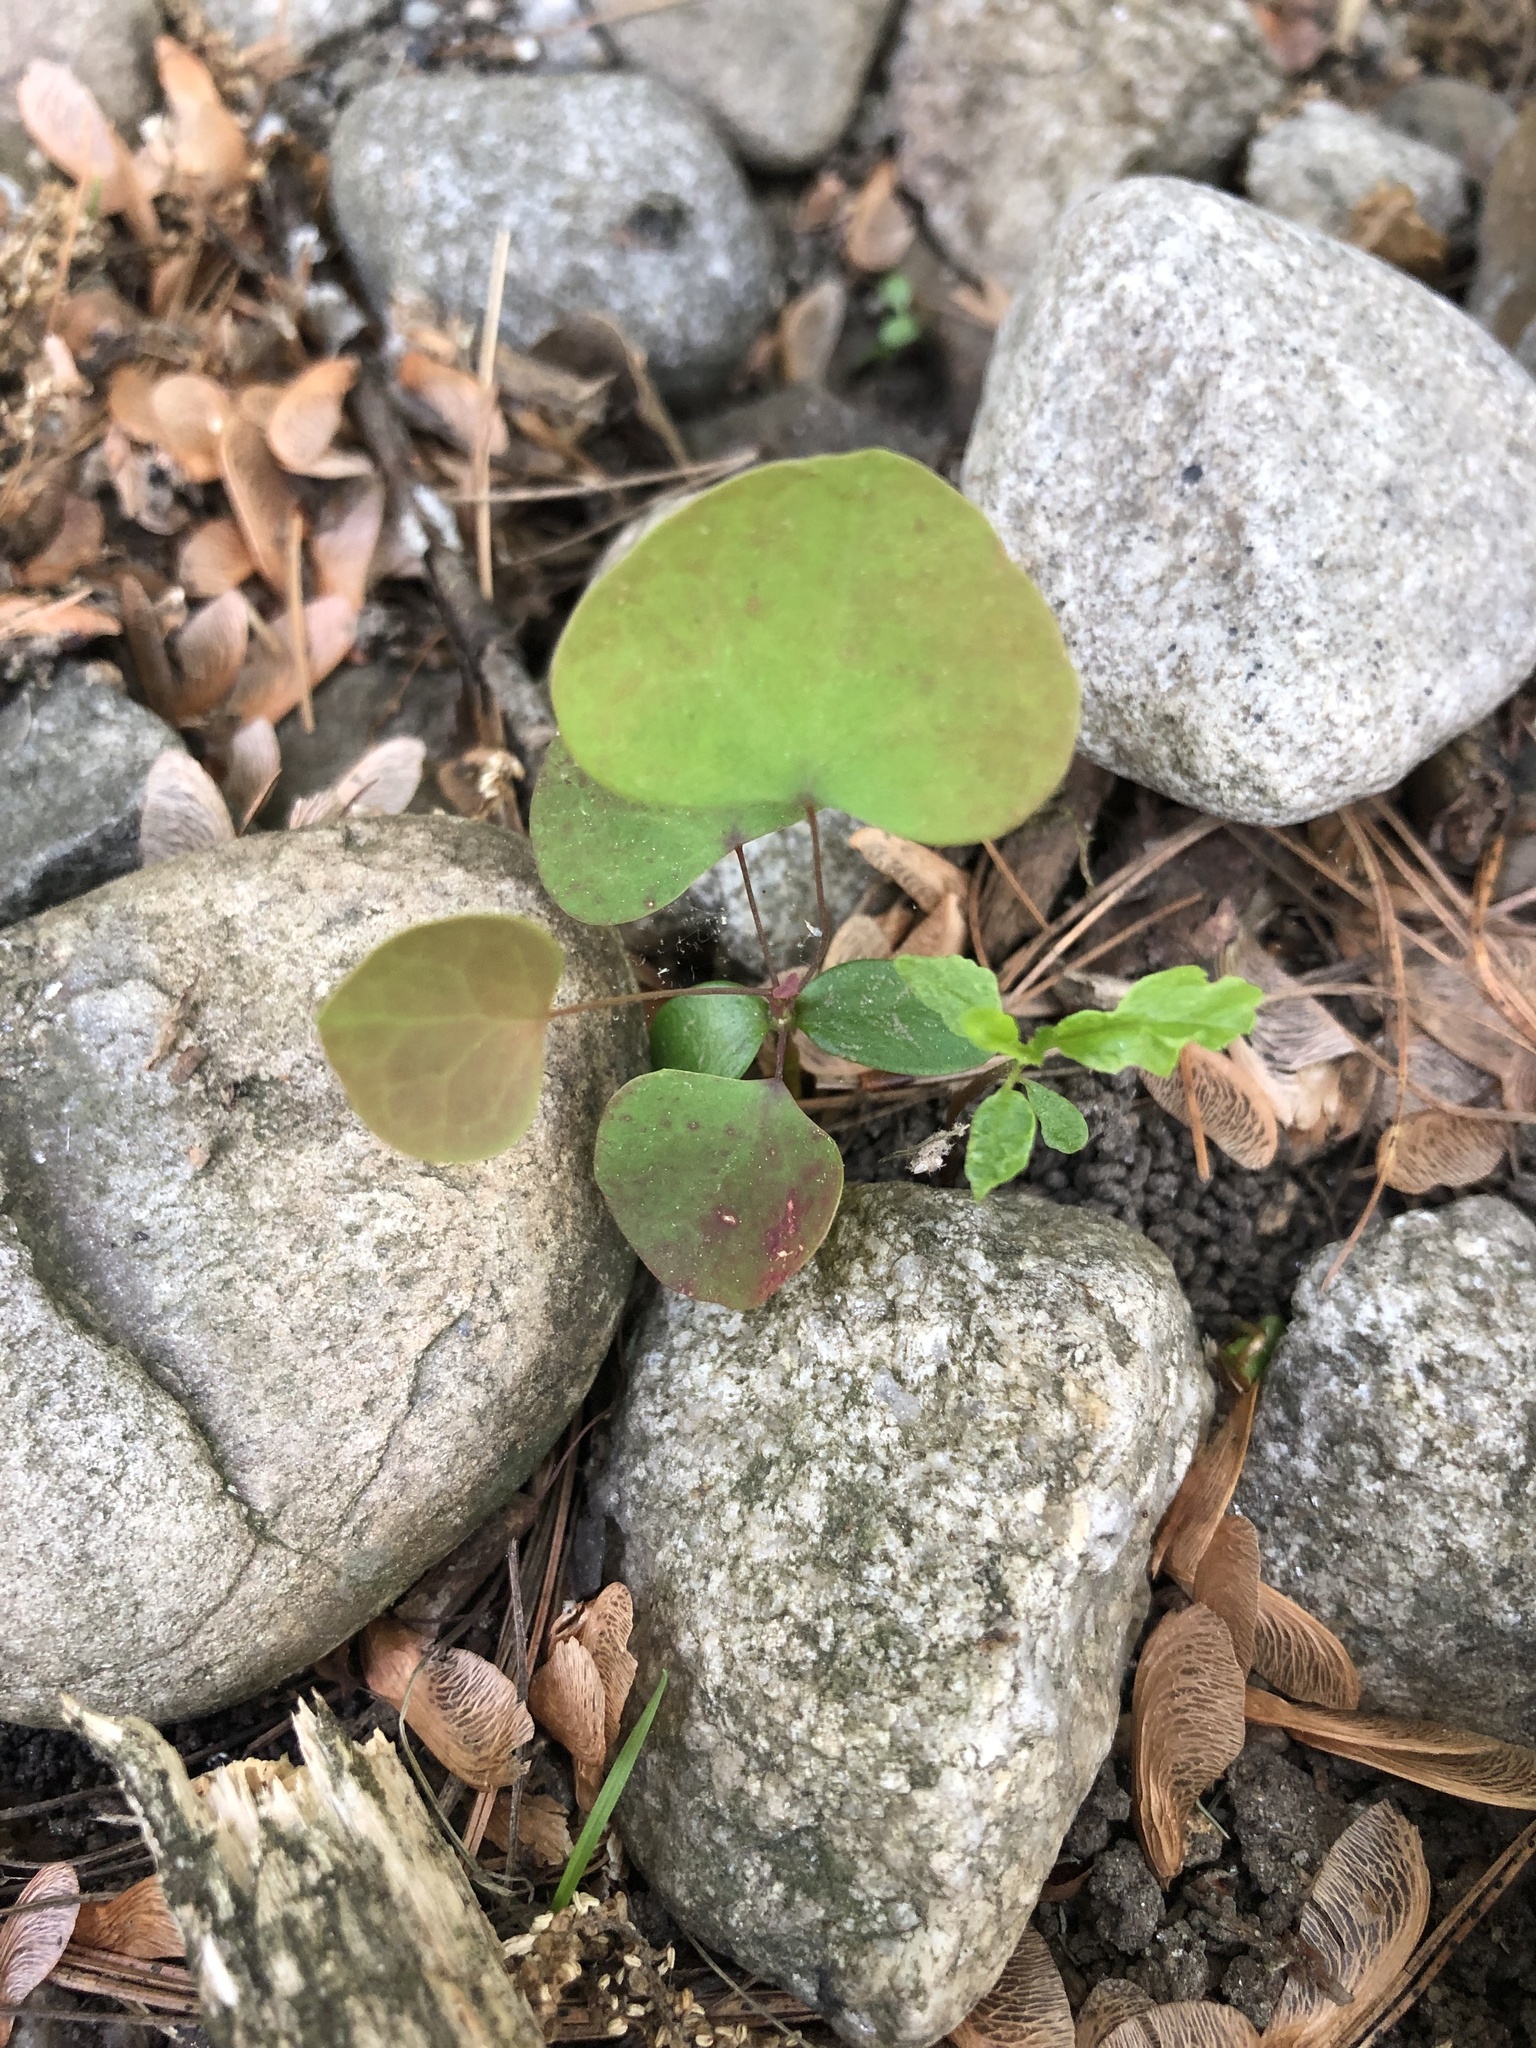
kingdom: Plantae
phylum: Tracheophyta
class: Magnoliopsida
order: Ranunculales
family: Berberidaceae
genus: Berberis
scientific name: Berberis thunbergii
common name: Japanese barberry
